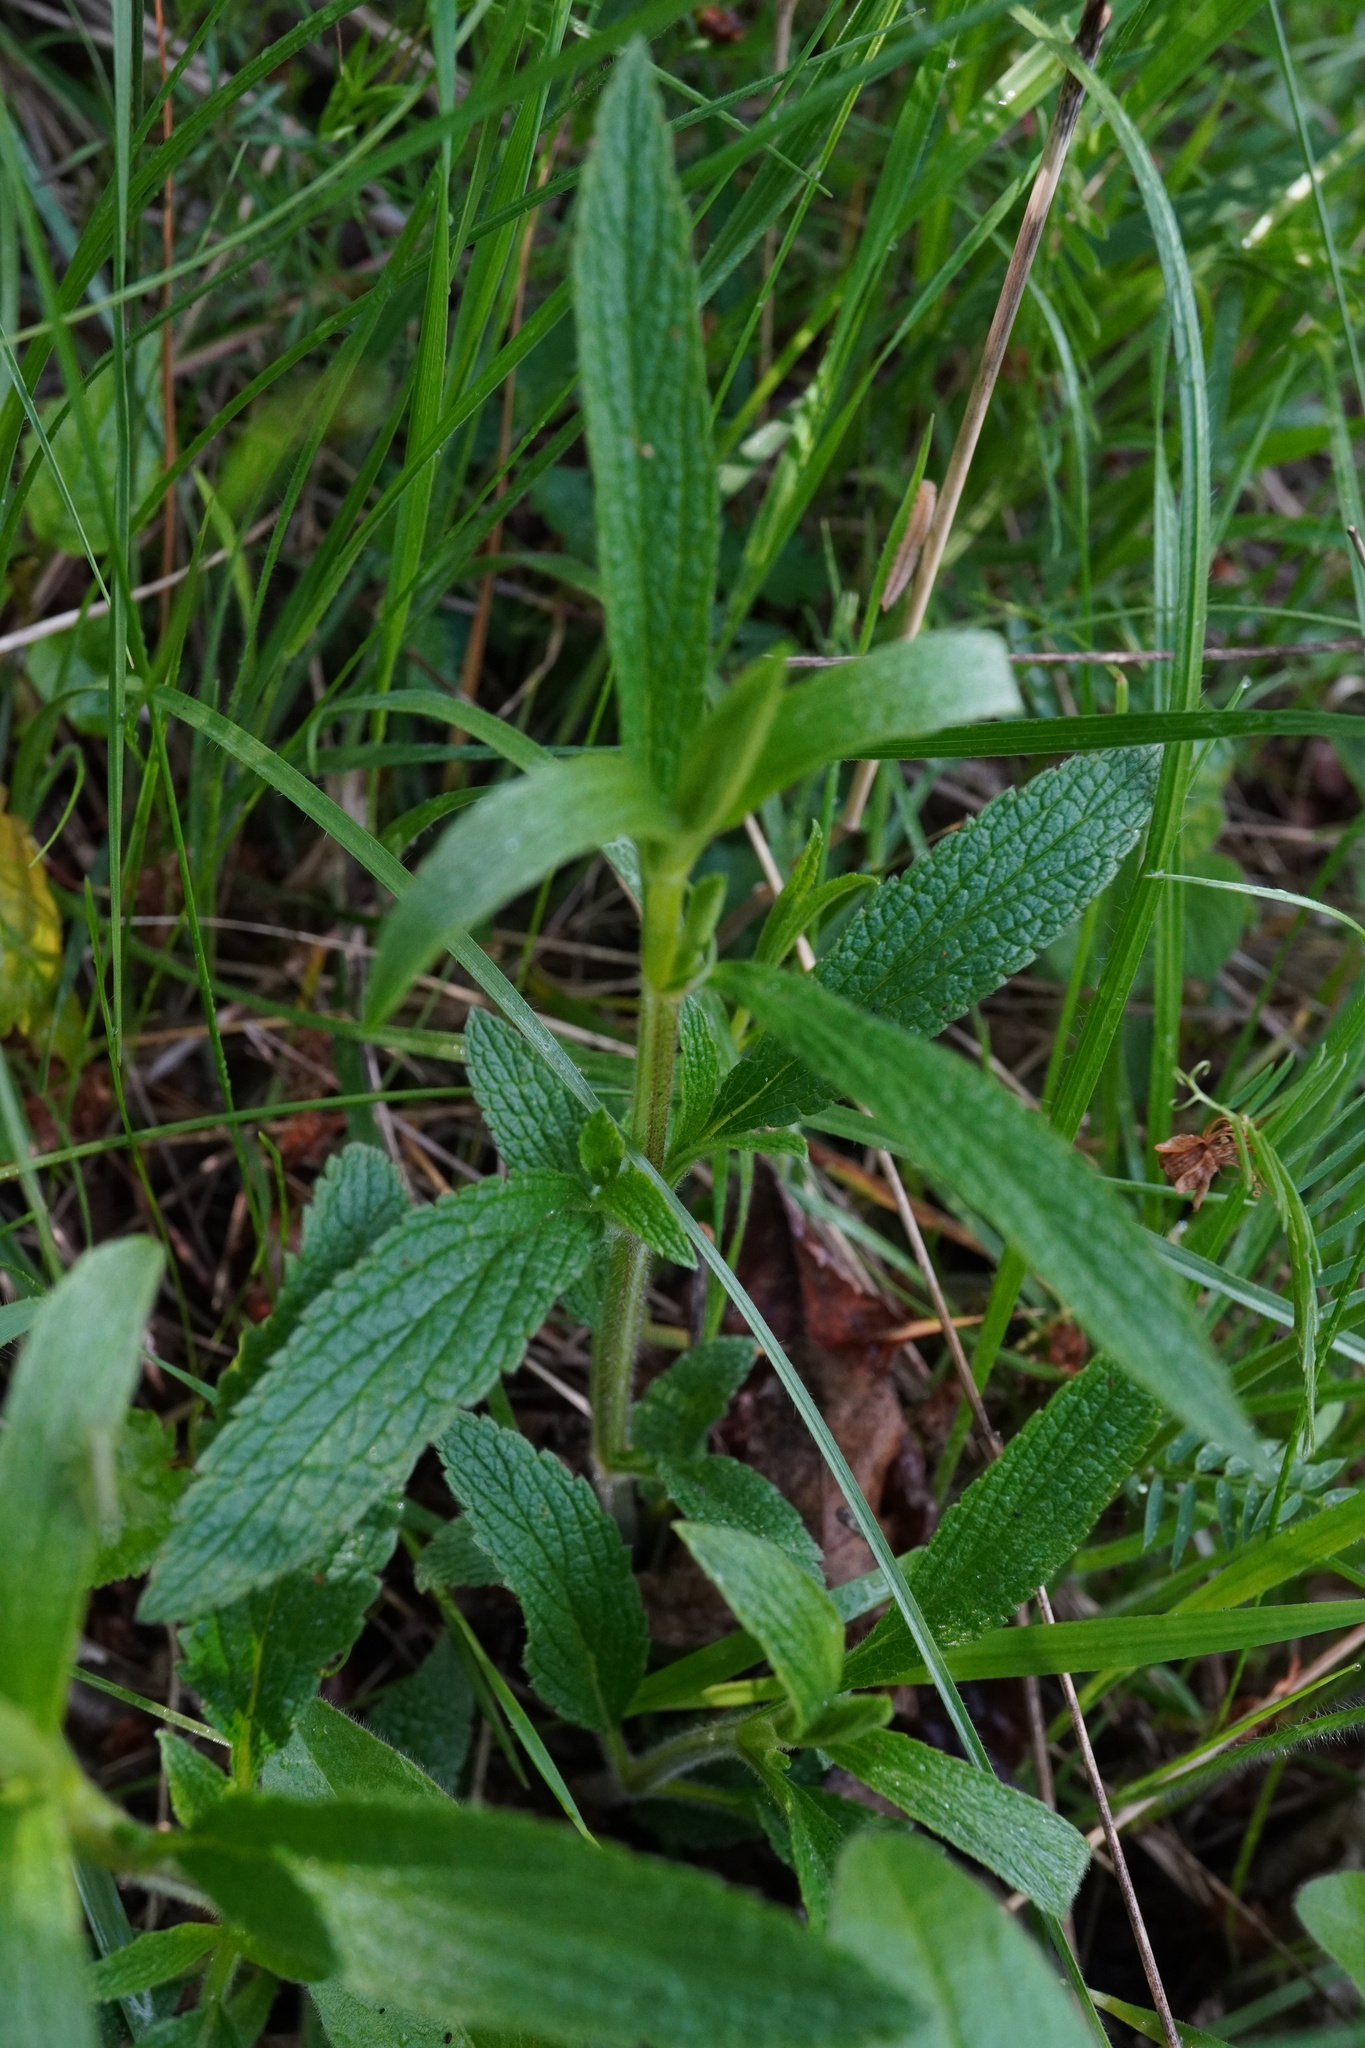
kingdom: Plantae
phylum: Tracheophyta
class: Magnoliopsida
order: Lamiales
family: Lamiaceae
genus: Stachys
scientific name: Stachys recta
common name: Perennial yellow-woundwort
